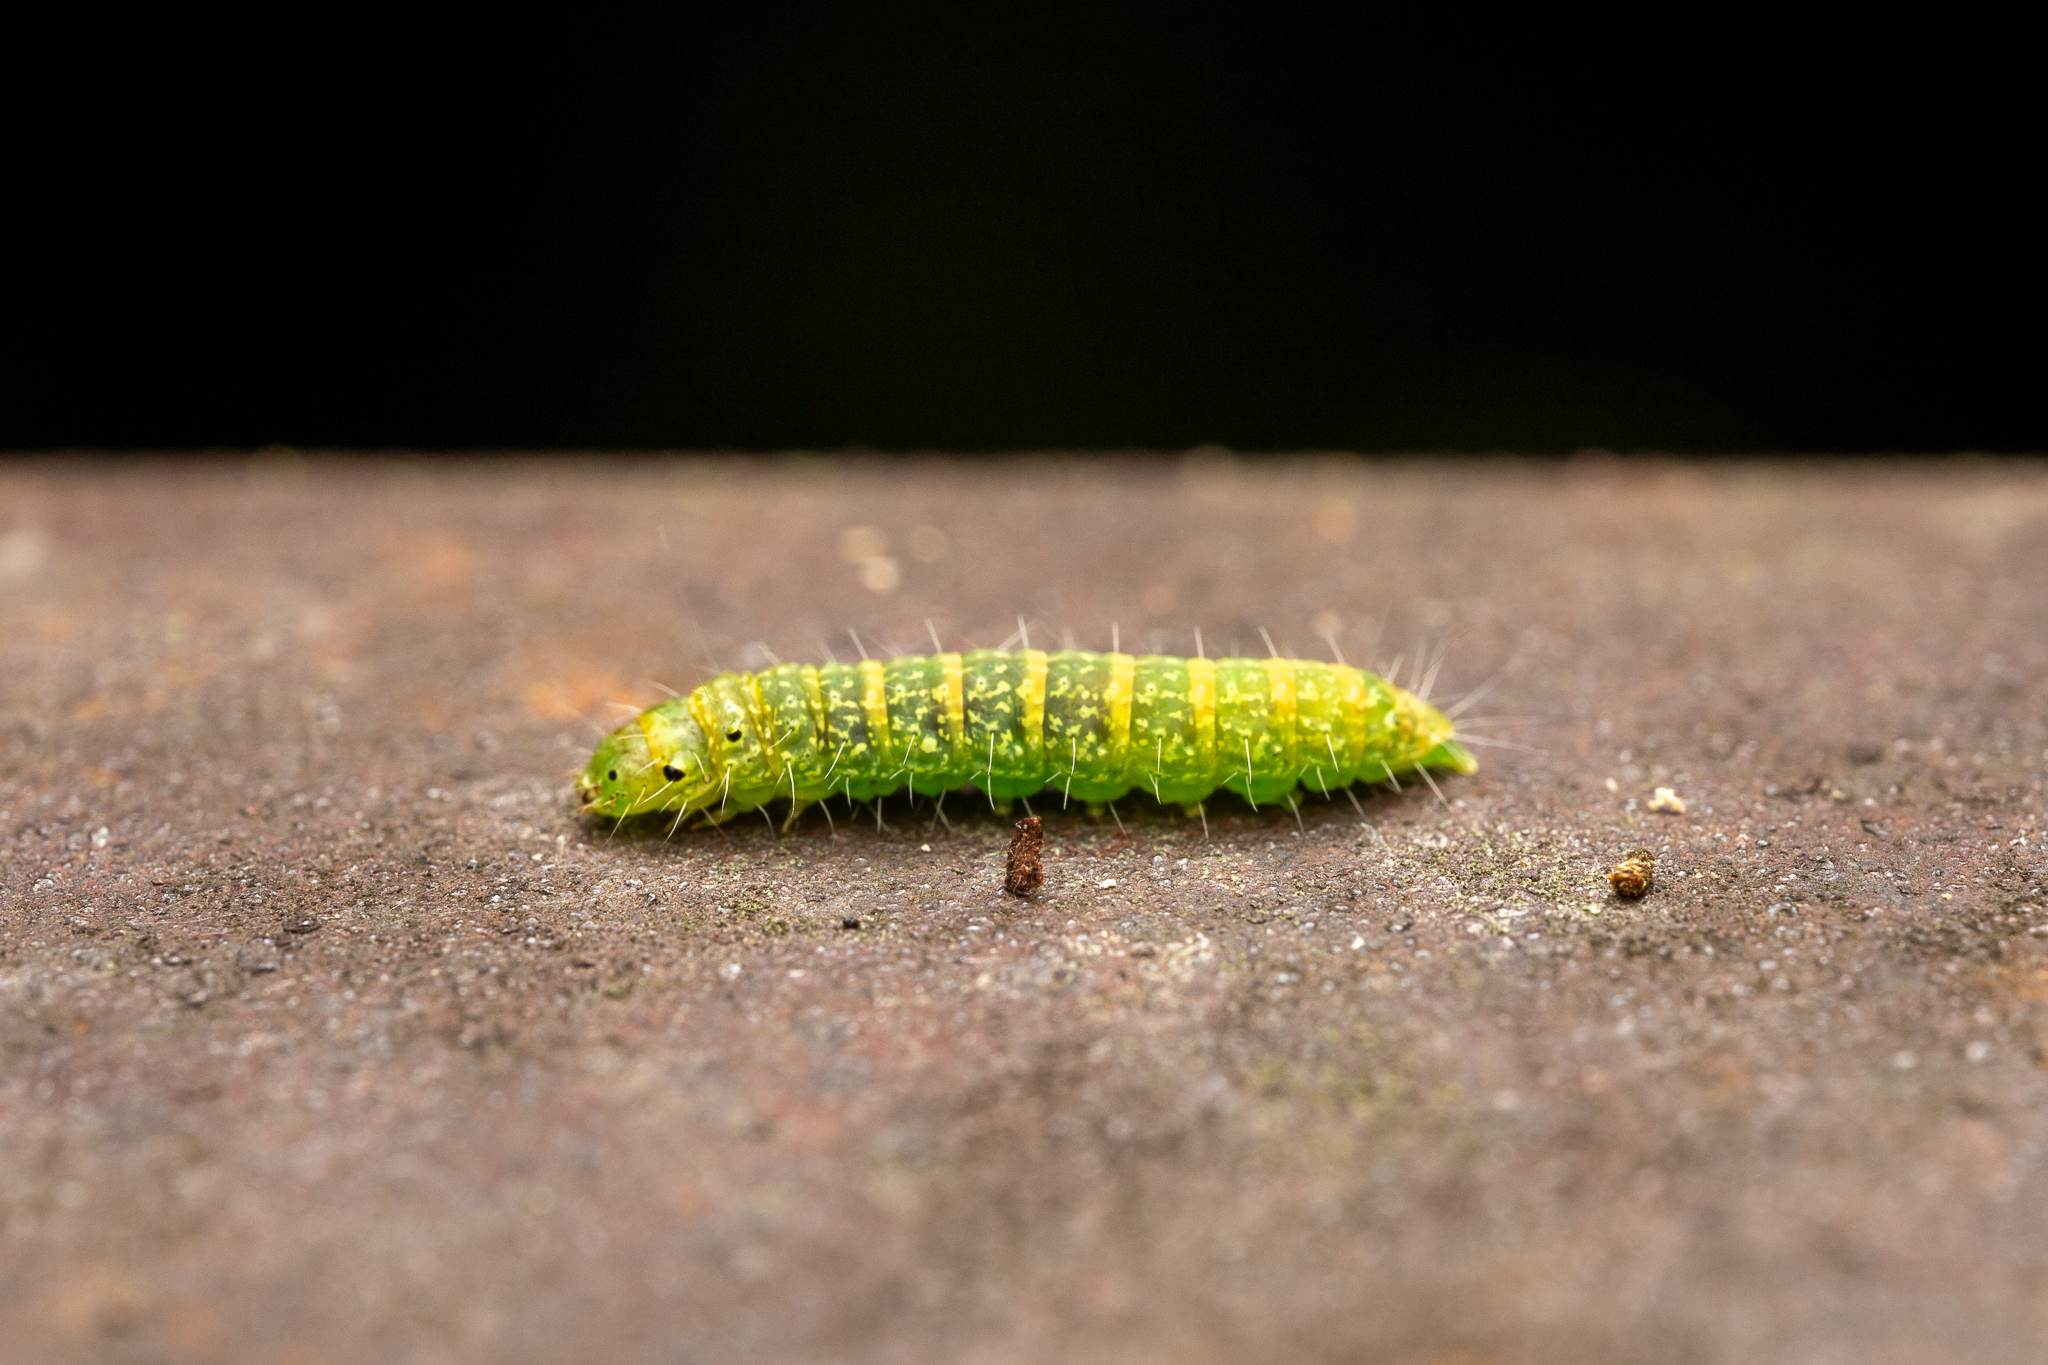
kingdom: Animalia
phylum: Arthropoda
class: Insecta
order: Lepidoptera
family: Noctuidae
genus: Polygrammate
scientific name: Polygrammate hebraeicum
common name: Hebrew moth
